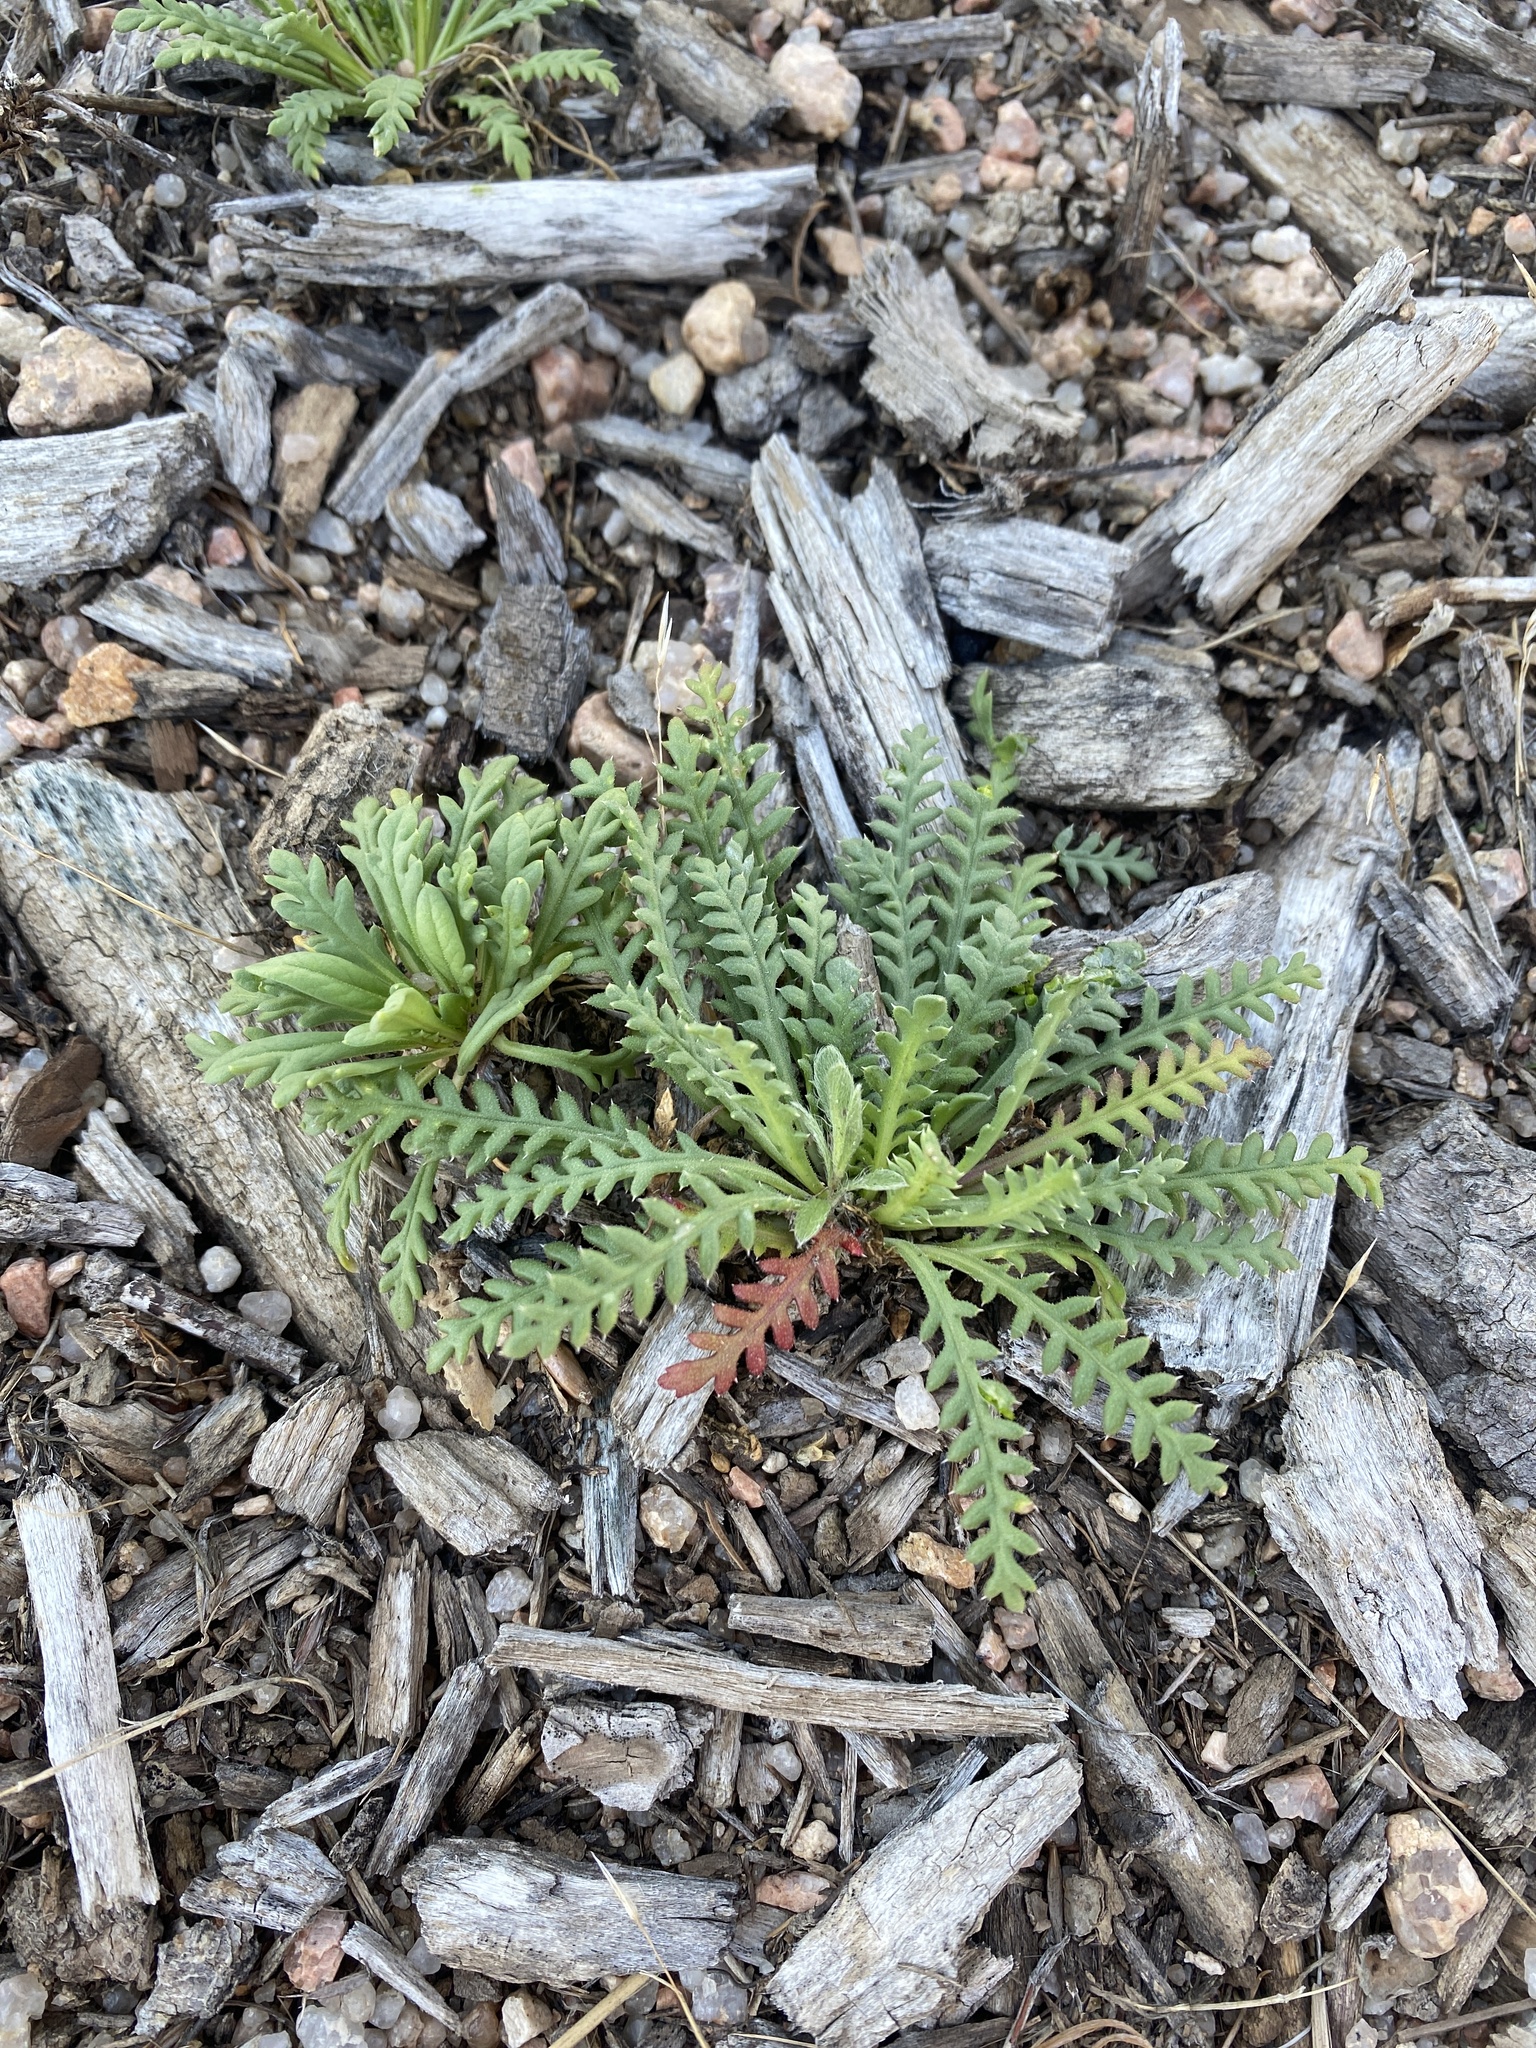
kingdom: Plantae
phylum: Tracheophyta
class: Magnoliopsida
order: Ericales
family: Polemoniaceae
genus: Aliciella
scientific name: Aliciella pinnatifida
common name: Sticky gilia
